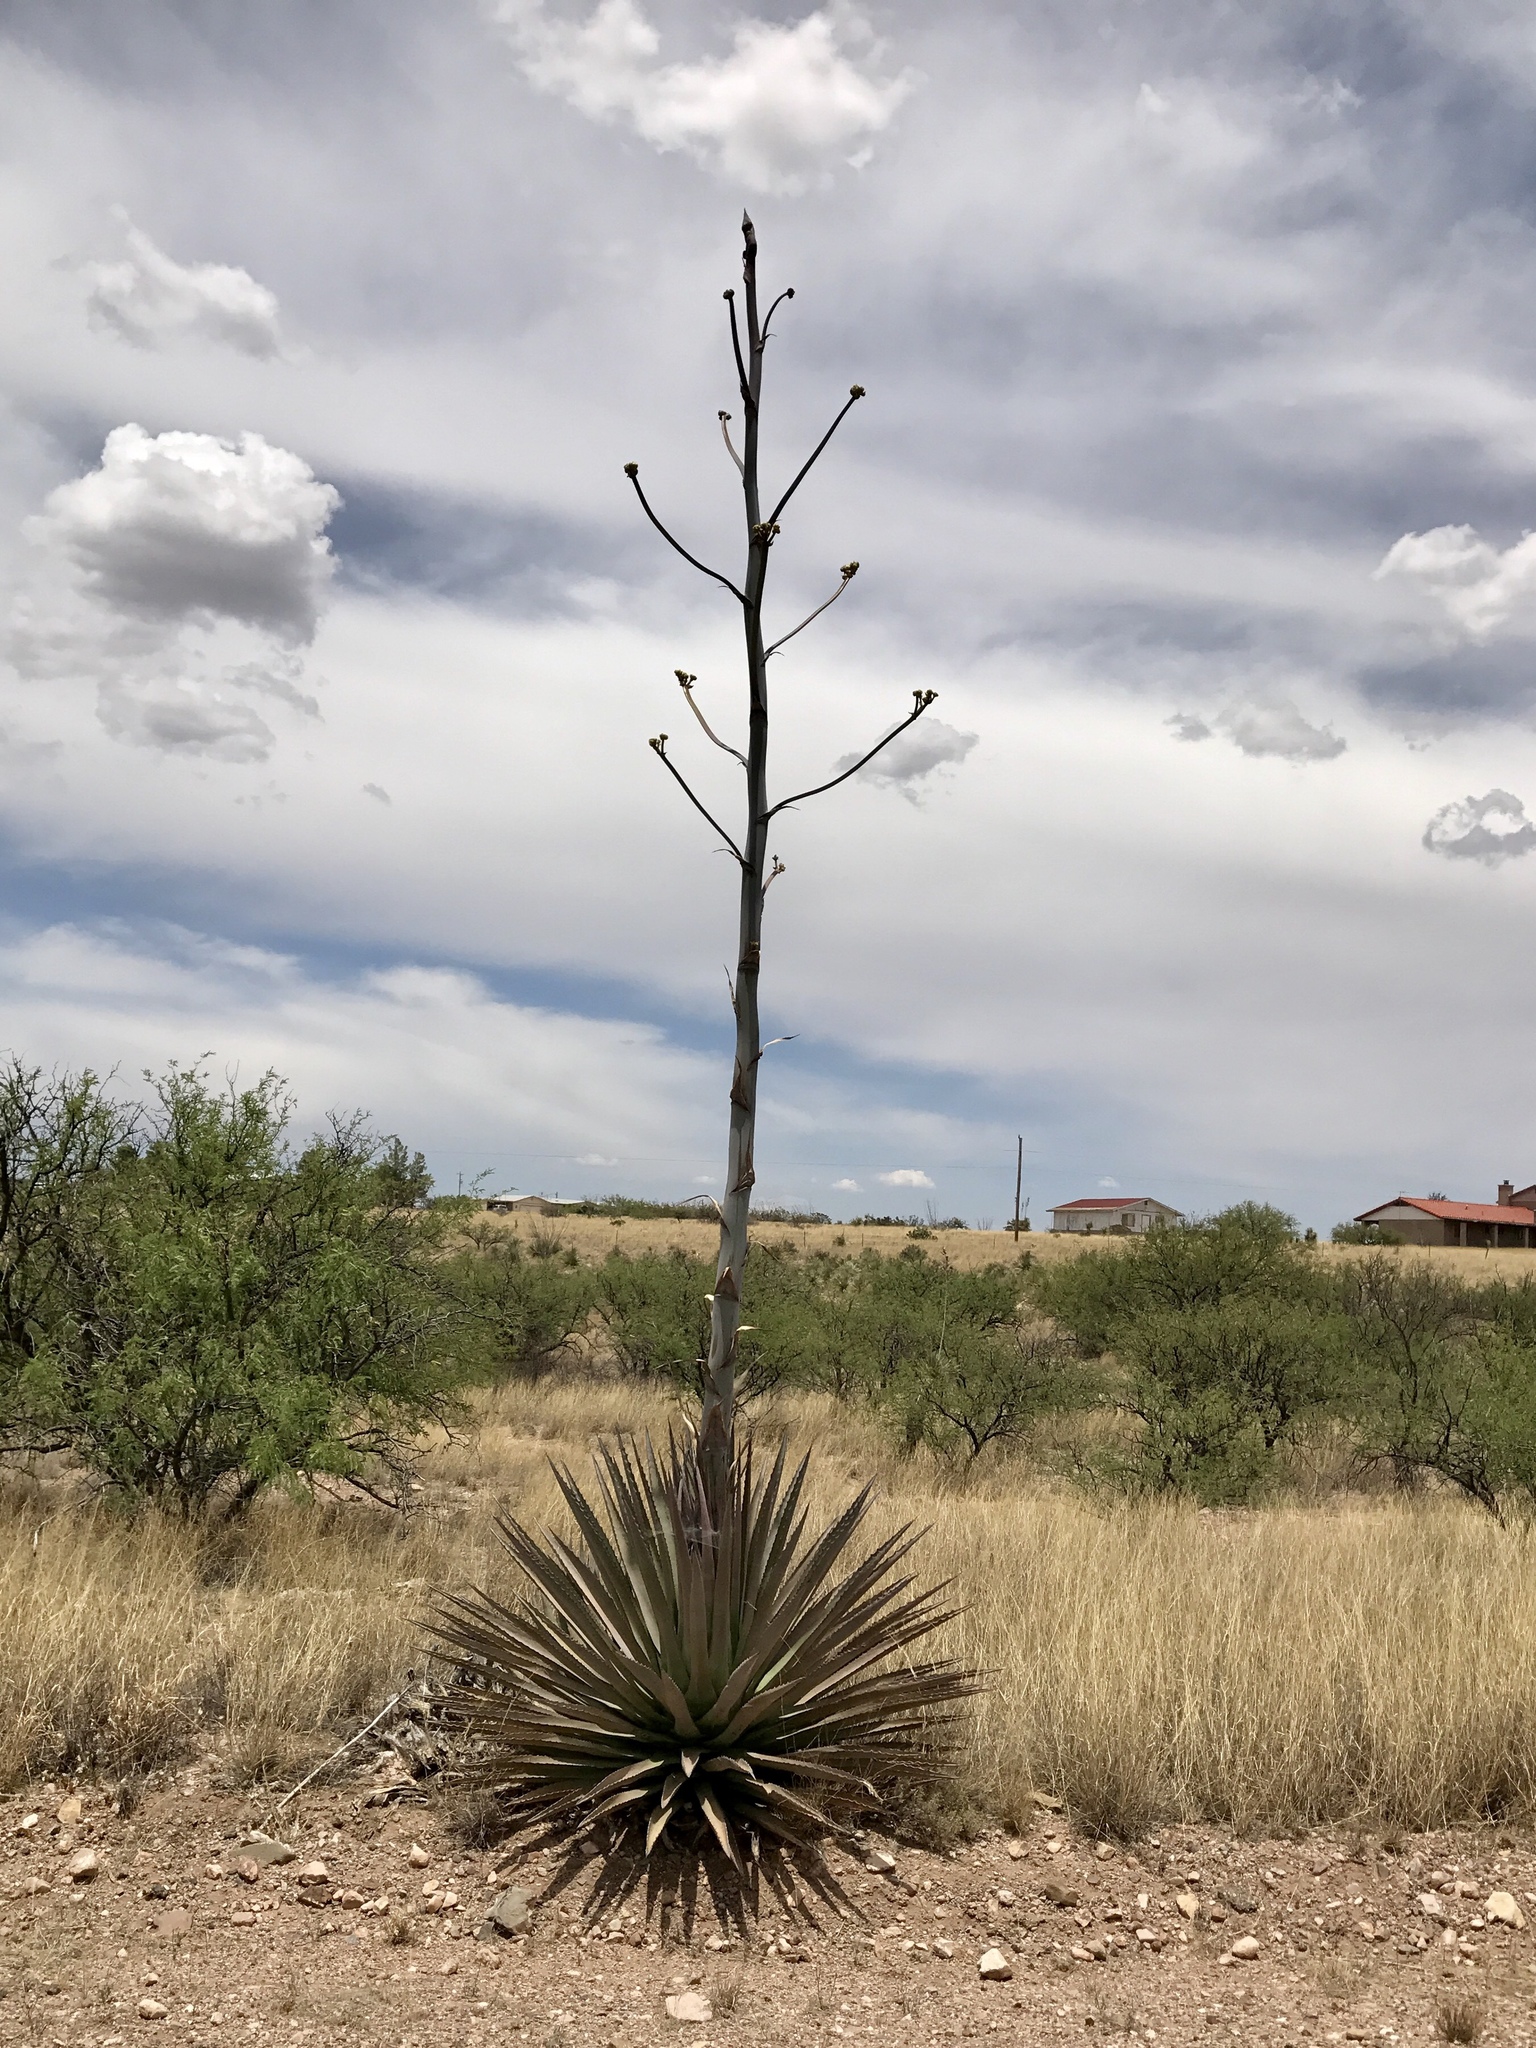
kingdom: Plantae
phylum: Tracheophyta
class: Liliopsida
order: Asparagales
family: Asparagaceae
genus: Agave
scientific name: Agave palmeri
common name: Palmer agave
